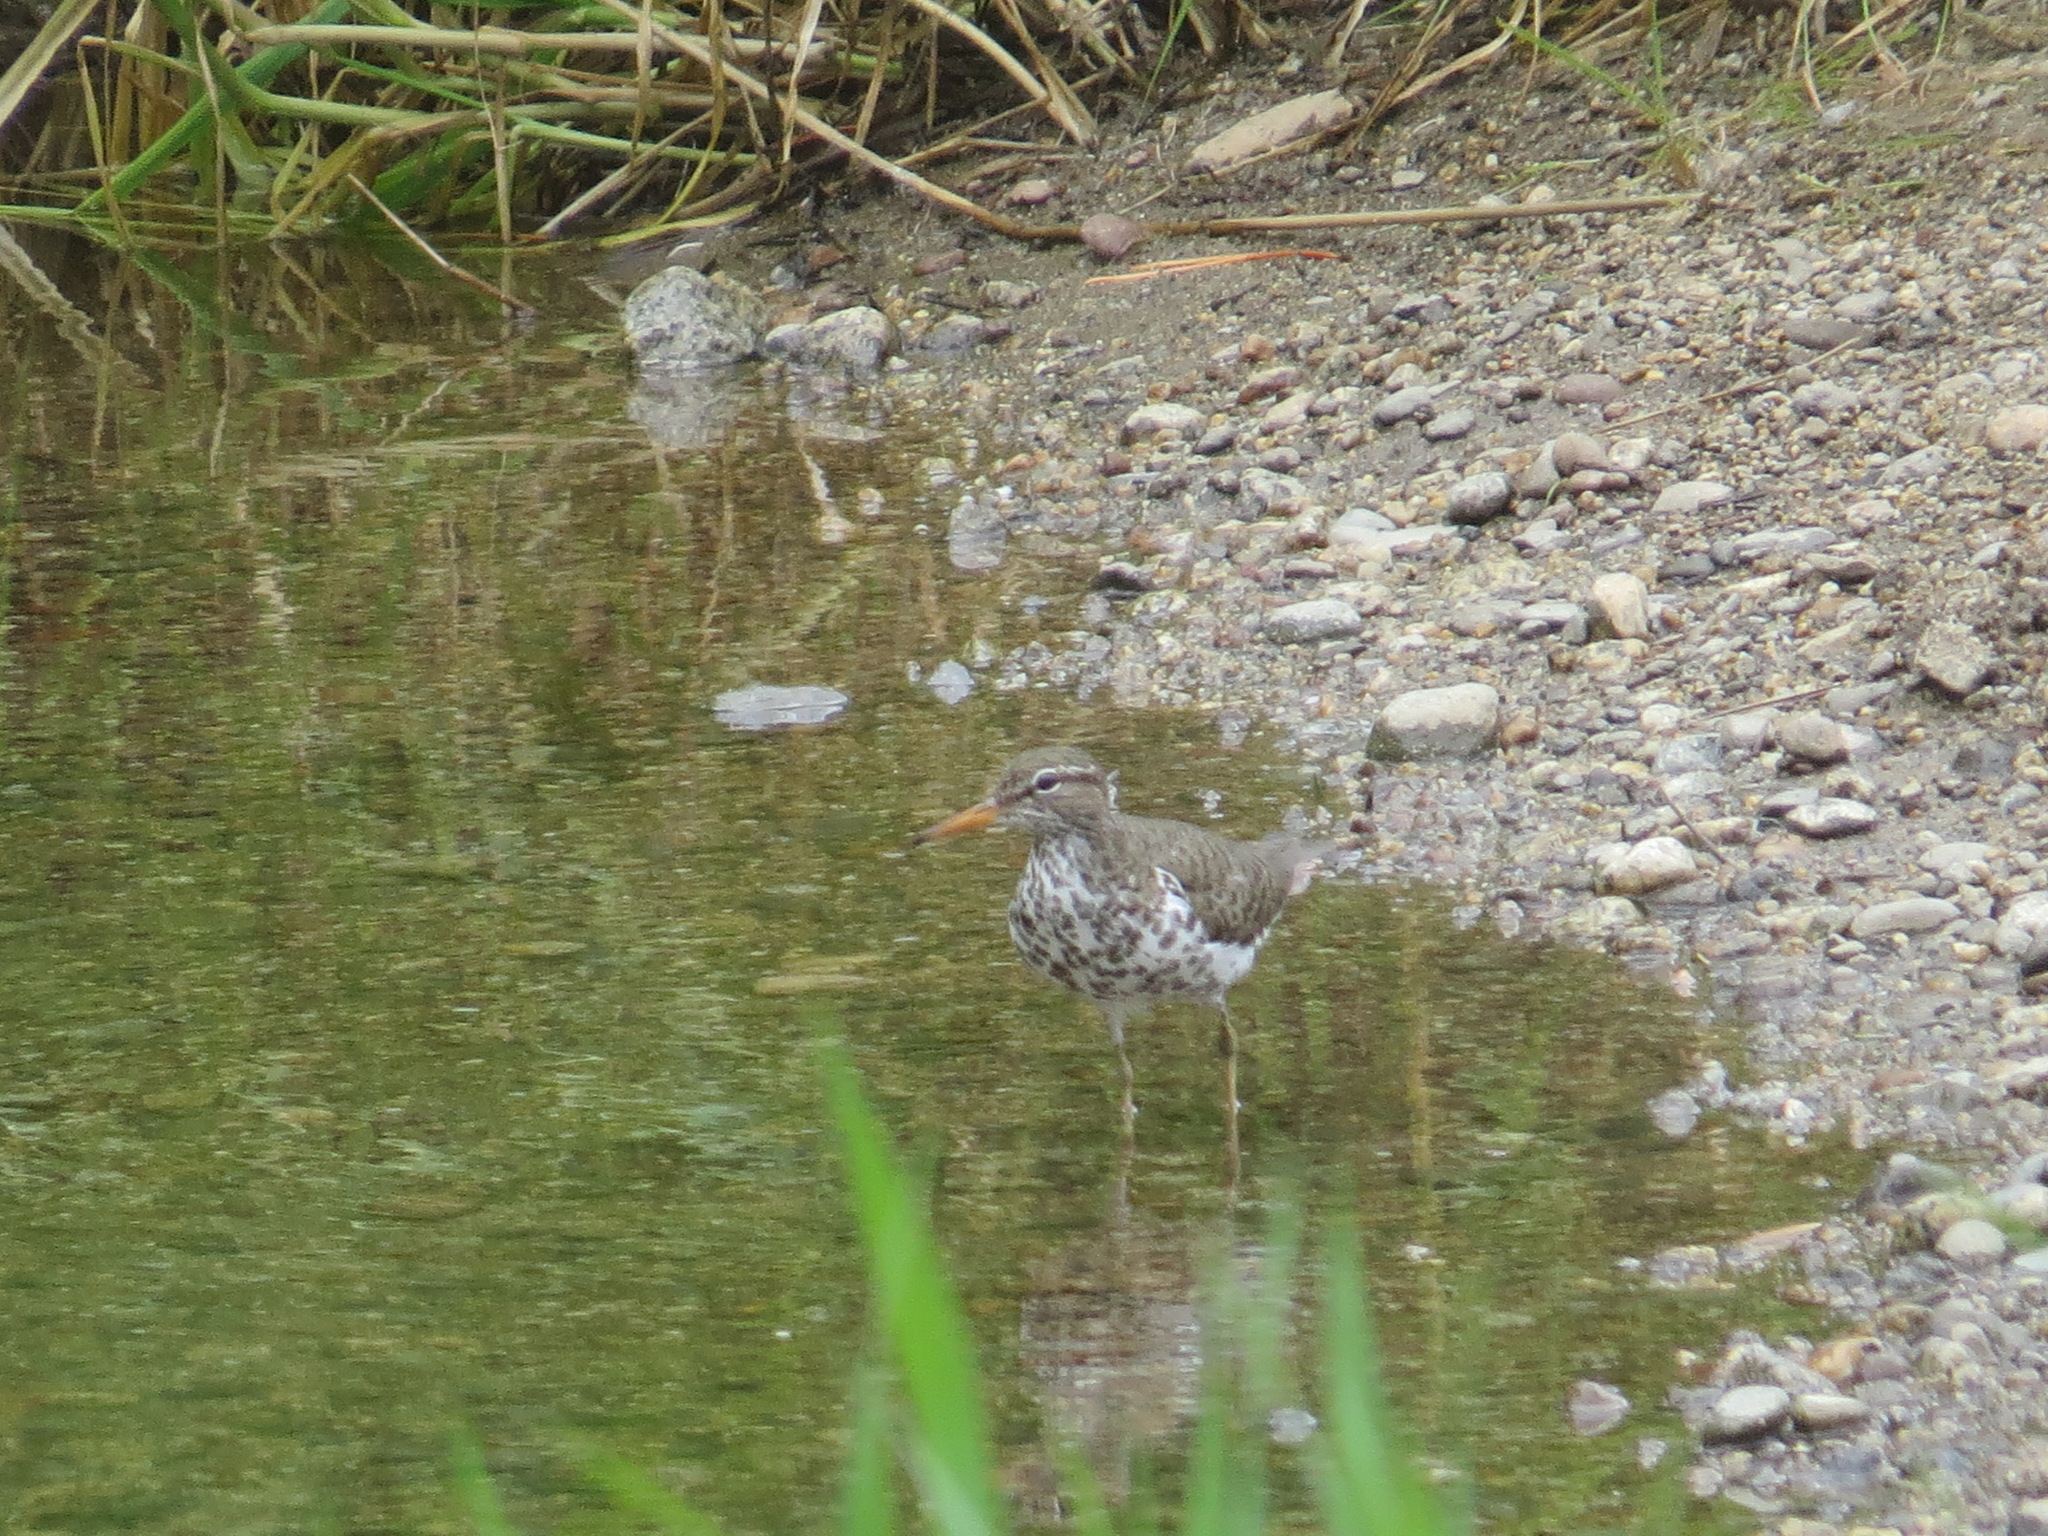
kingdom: Animalia
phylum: Chordata
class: Aves
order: Charadriiformes
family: Scolopacidae
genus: Actitis
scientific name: Actitis macularius
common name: Spotted sandpiper
